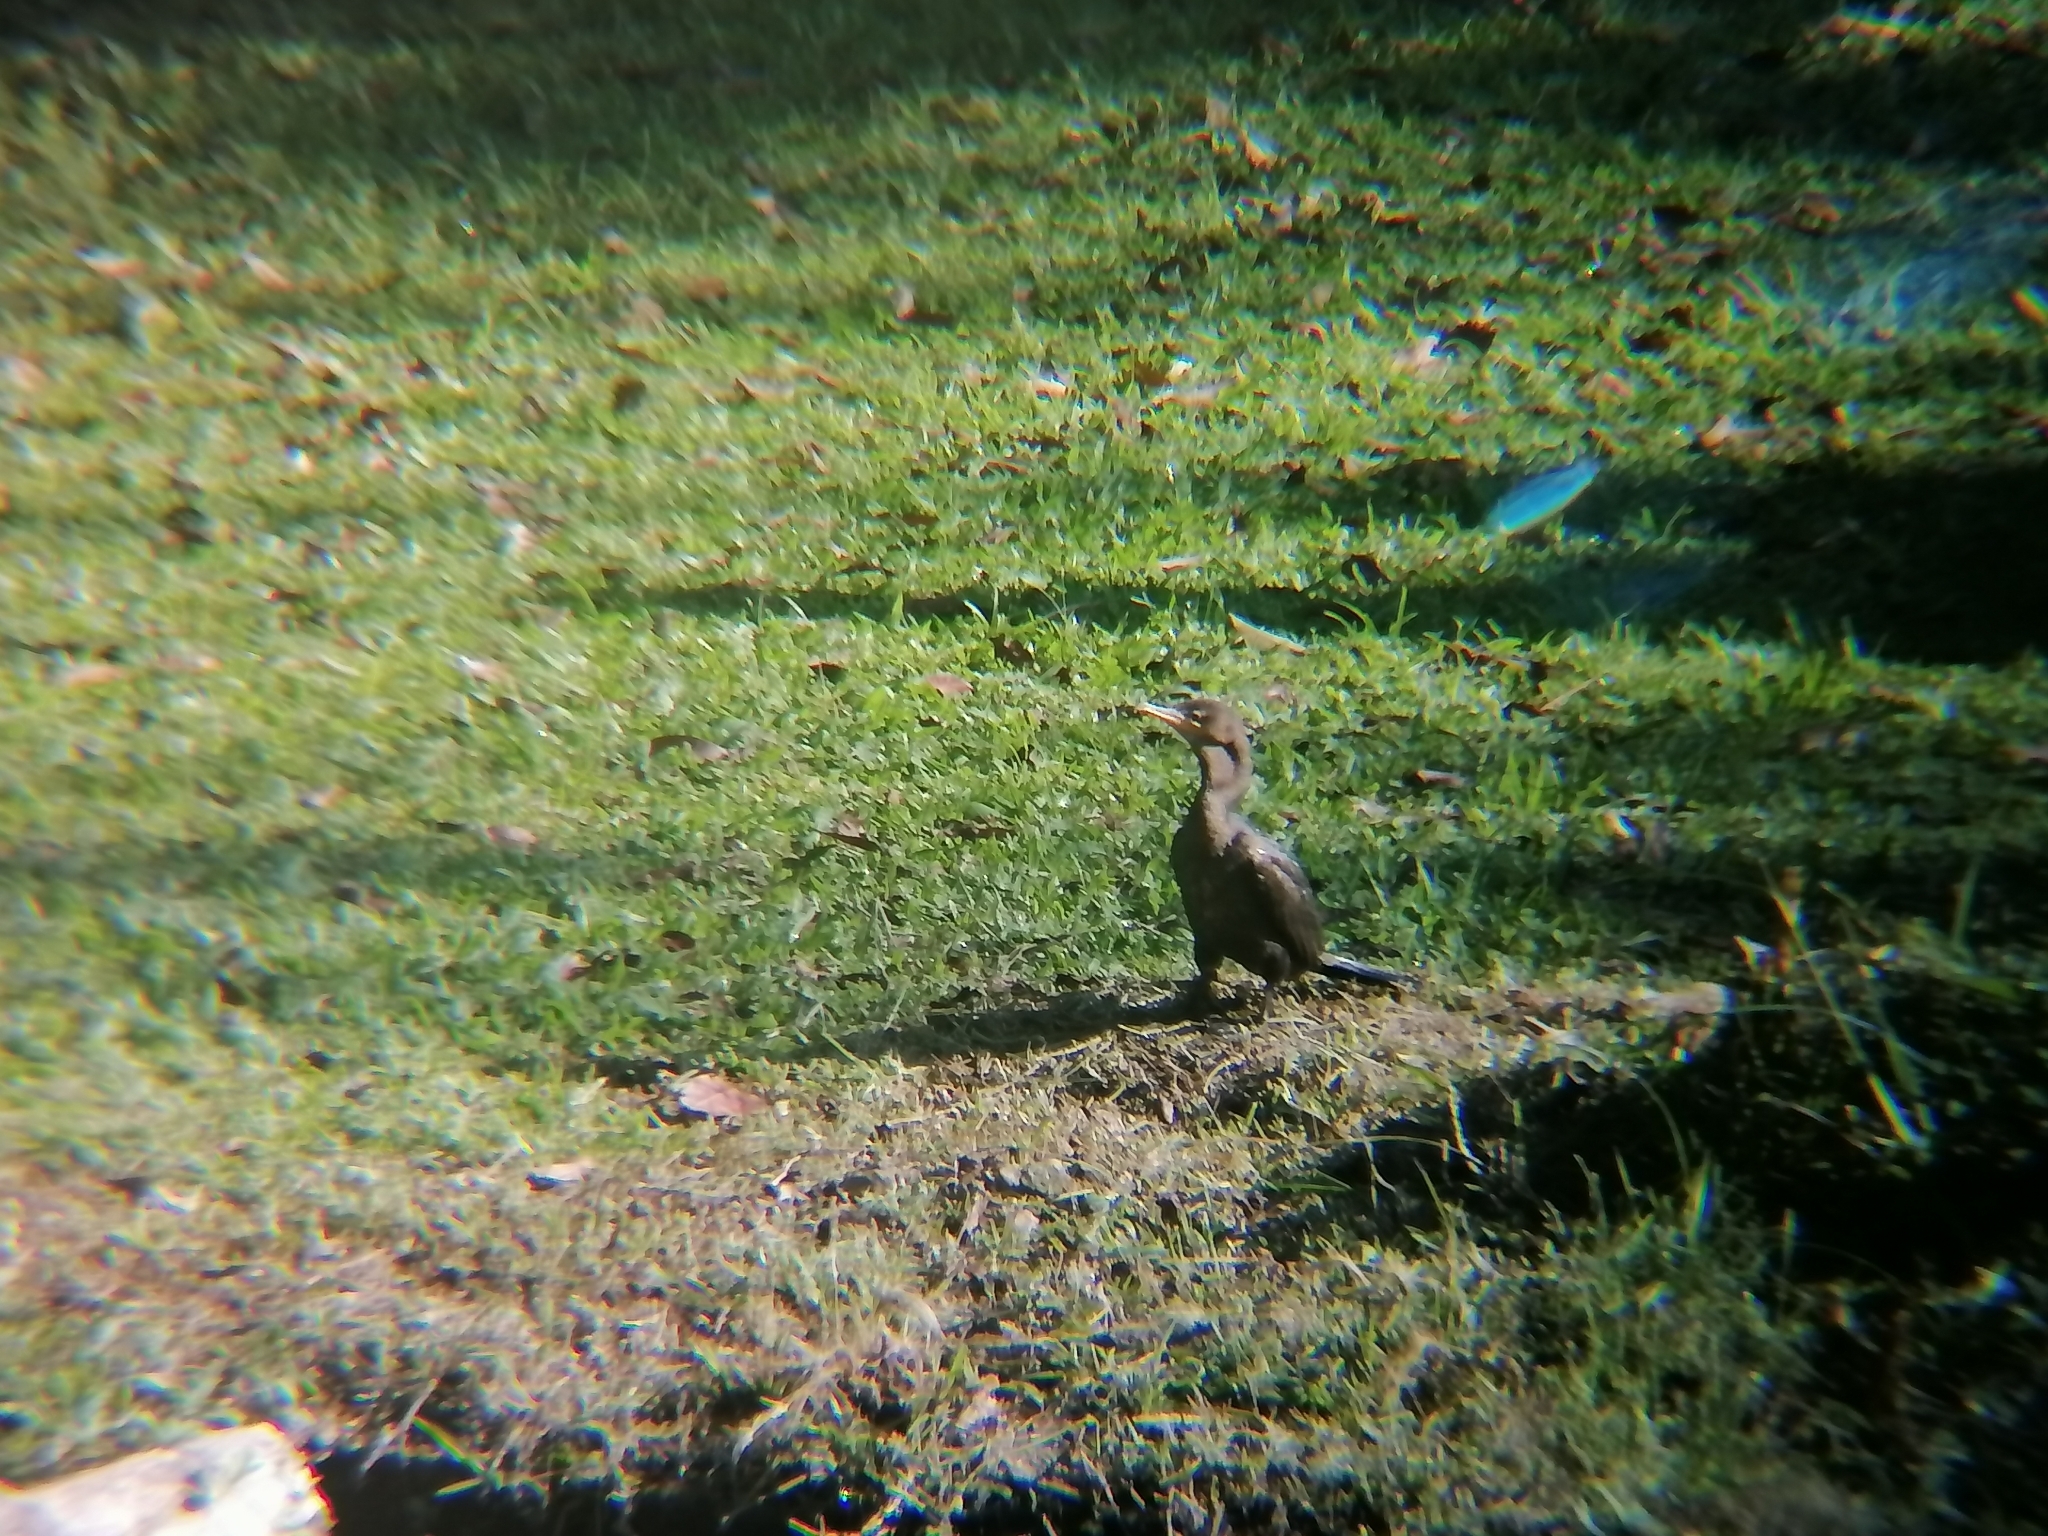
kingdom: Animalia
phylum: Chordata
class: Aves
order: Suliformes
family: Phalacrocoracidae
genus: Phalacrocorax
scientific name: Phalacrocorax brasilianus
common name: Neotropic cormorant
